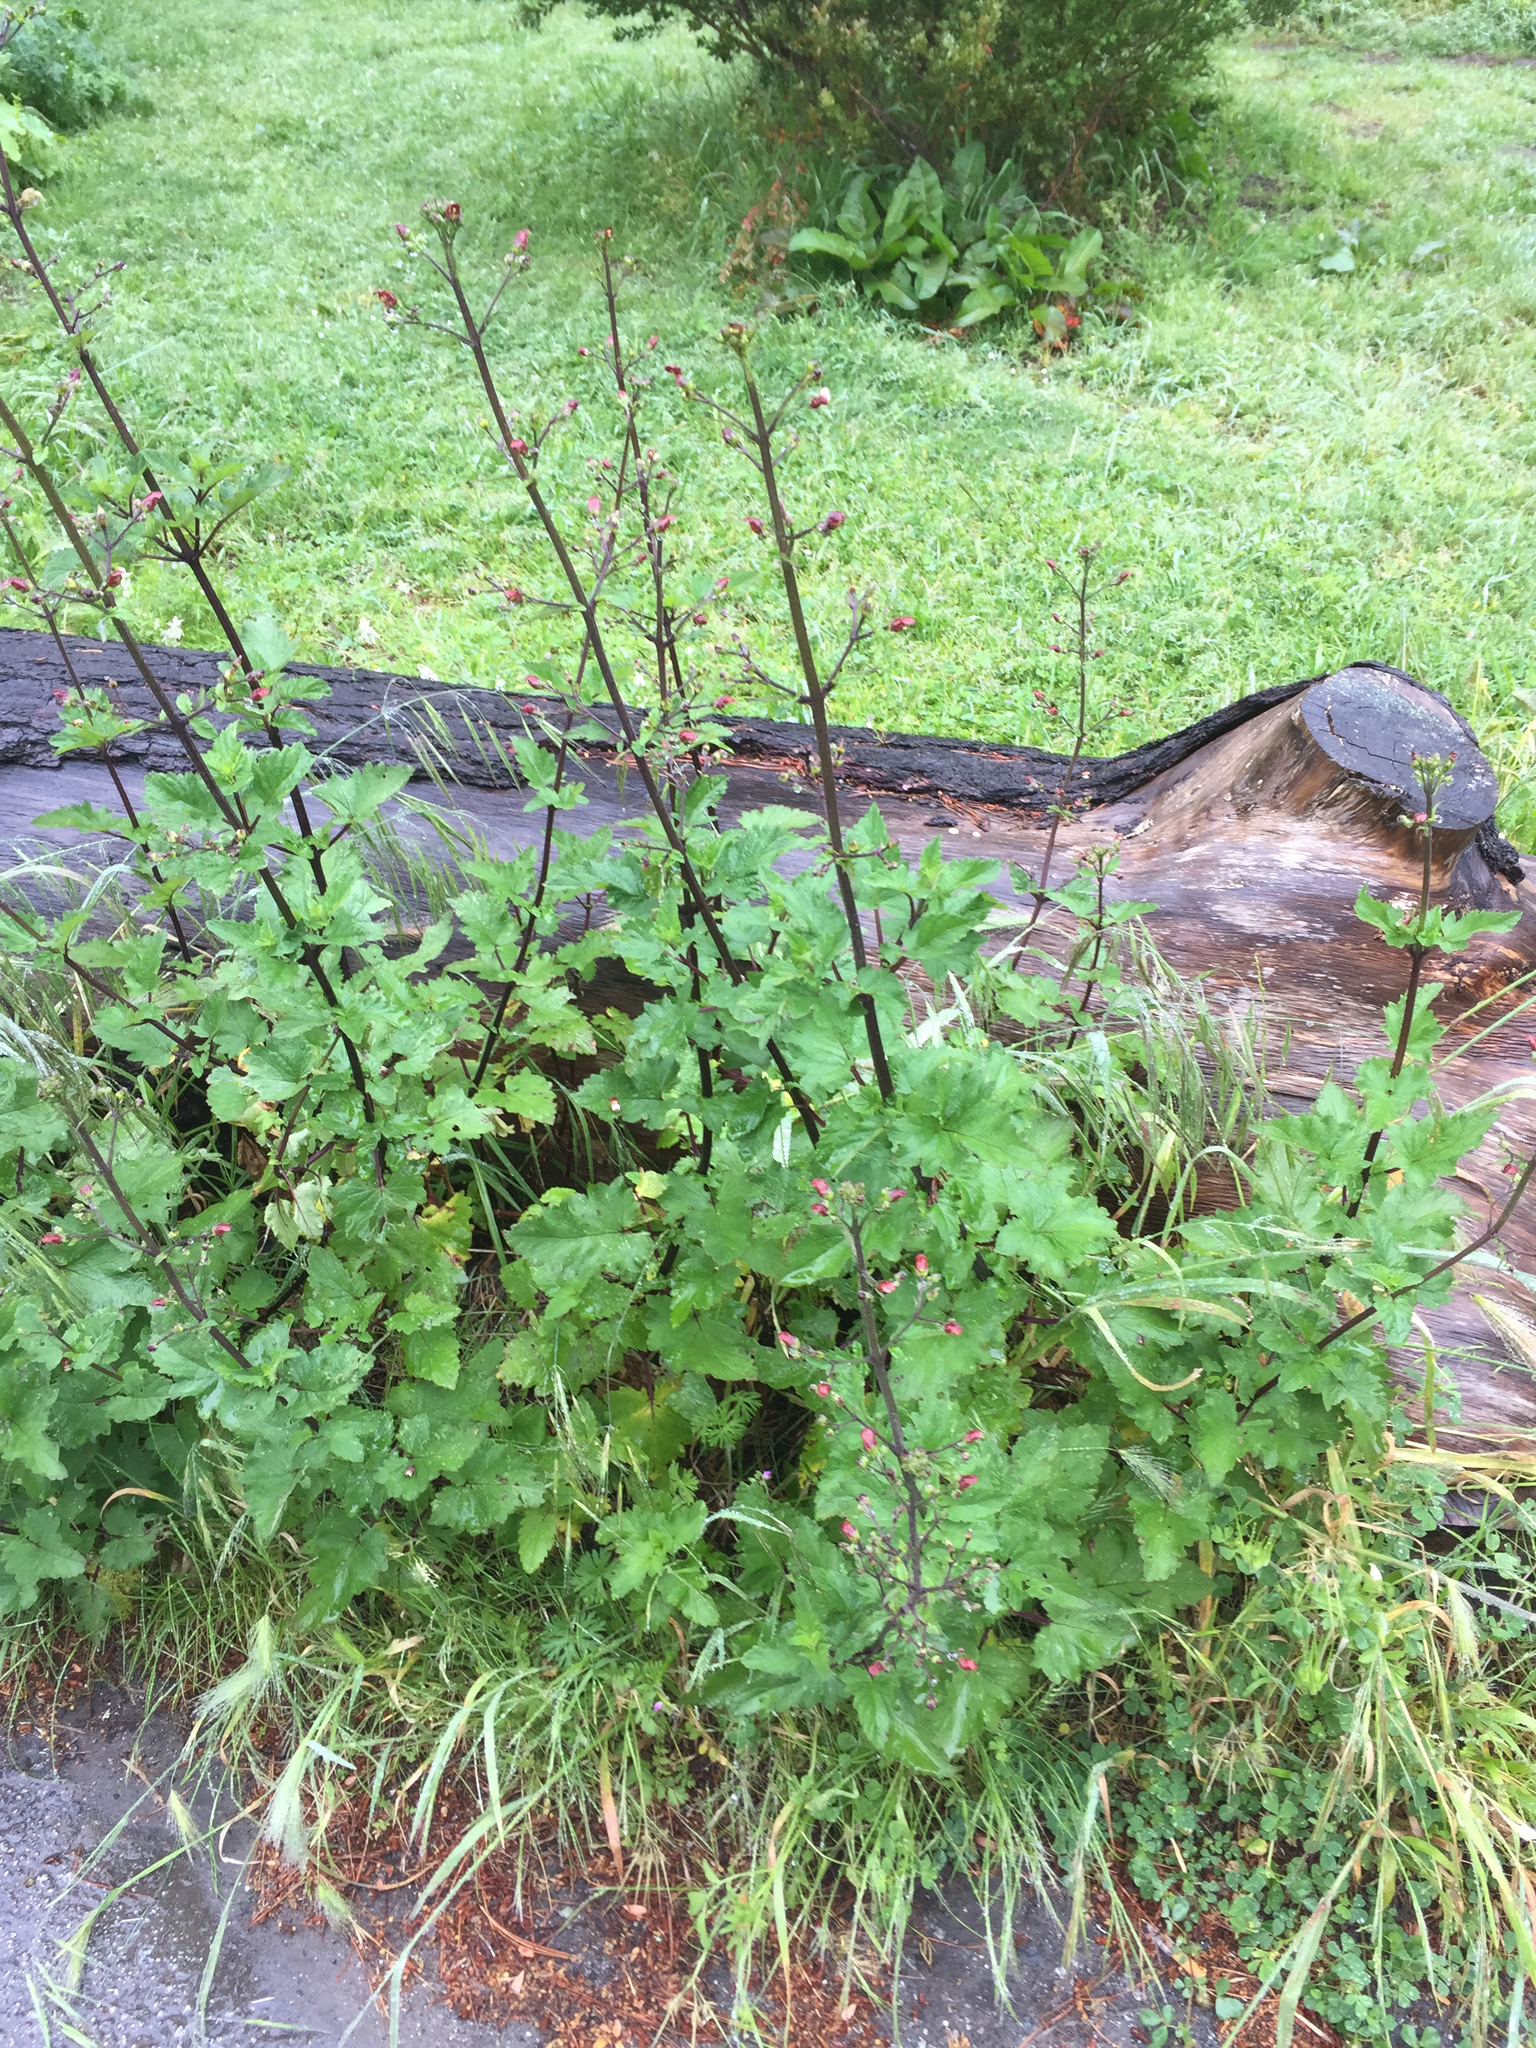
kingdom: Plantae
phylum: Tracheophyta
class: Magnoliopsida
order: Lamiales
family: Scrophulariaceae
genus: Scrophularia
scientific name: Scrophularia californica
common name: California figwort
